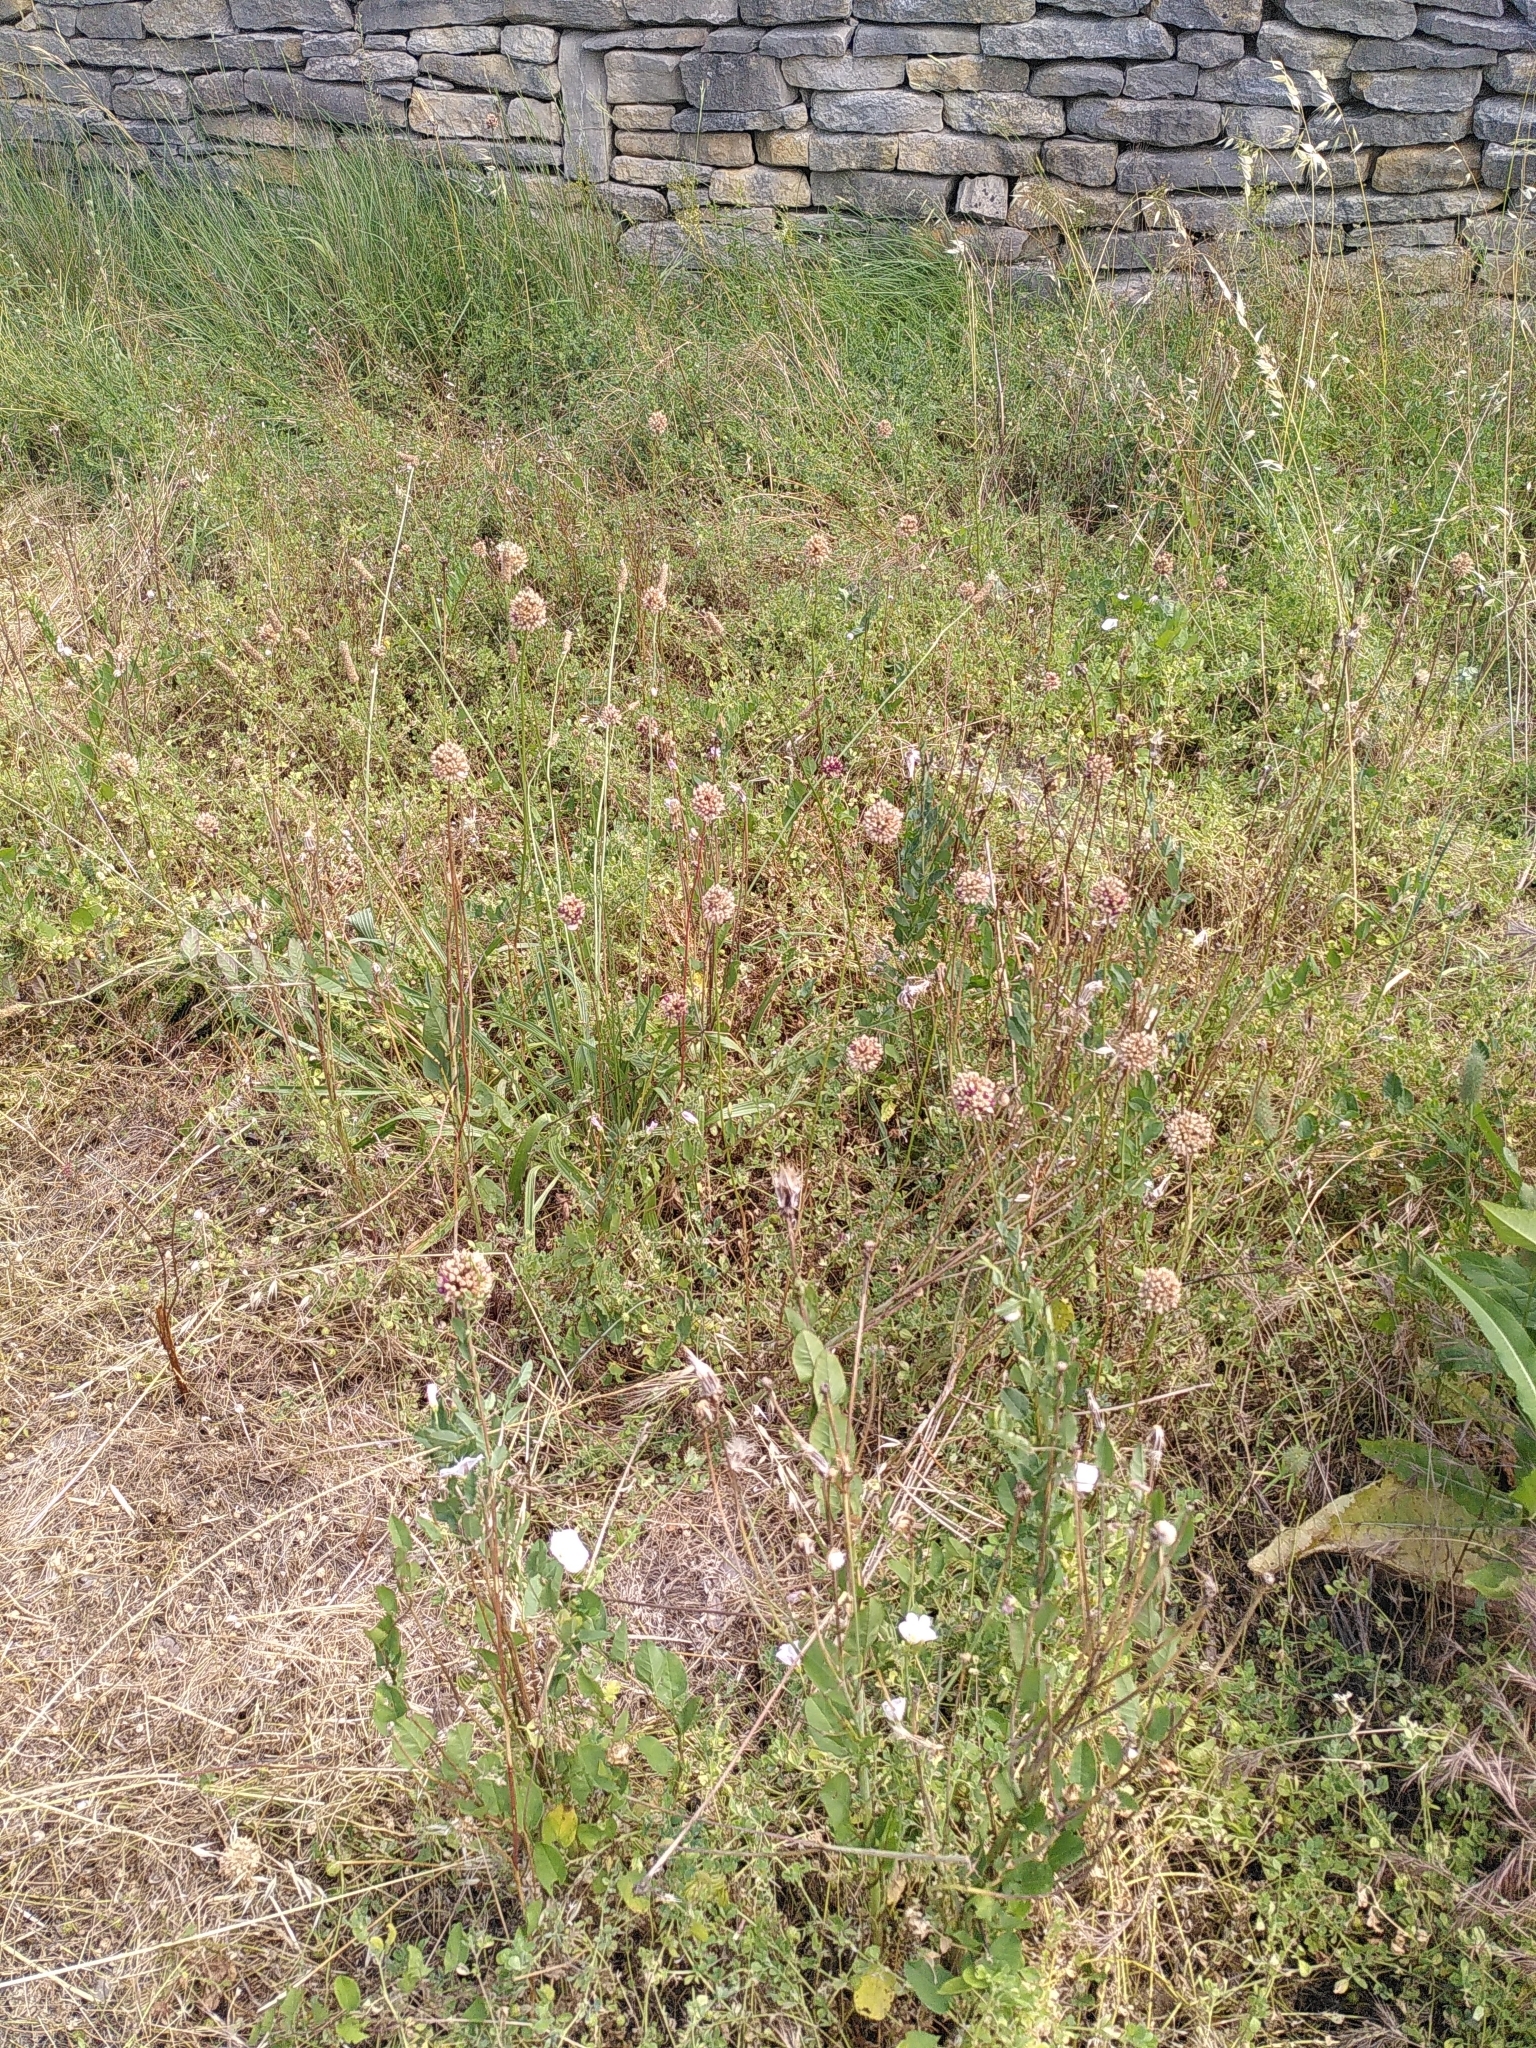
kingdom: Plantae
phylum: Tracheophyta
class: Liliopsida
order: Asparagales
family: Amaryllidaceae
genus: Allium
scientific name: Allium rotundum
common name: Sand leek
